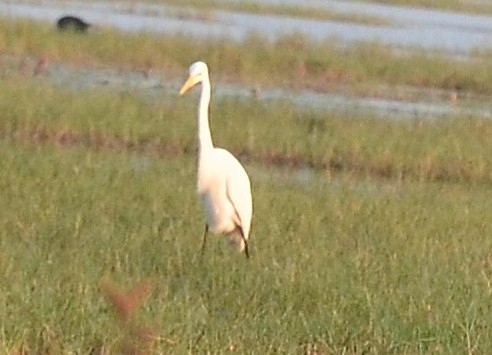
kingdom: Animalia
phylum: Chordata
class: Aves
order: Pelecaniformes
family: Ardeidae
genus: Egretta
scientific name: Egretta intermedia
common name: Intermediate egret
